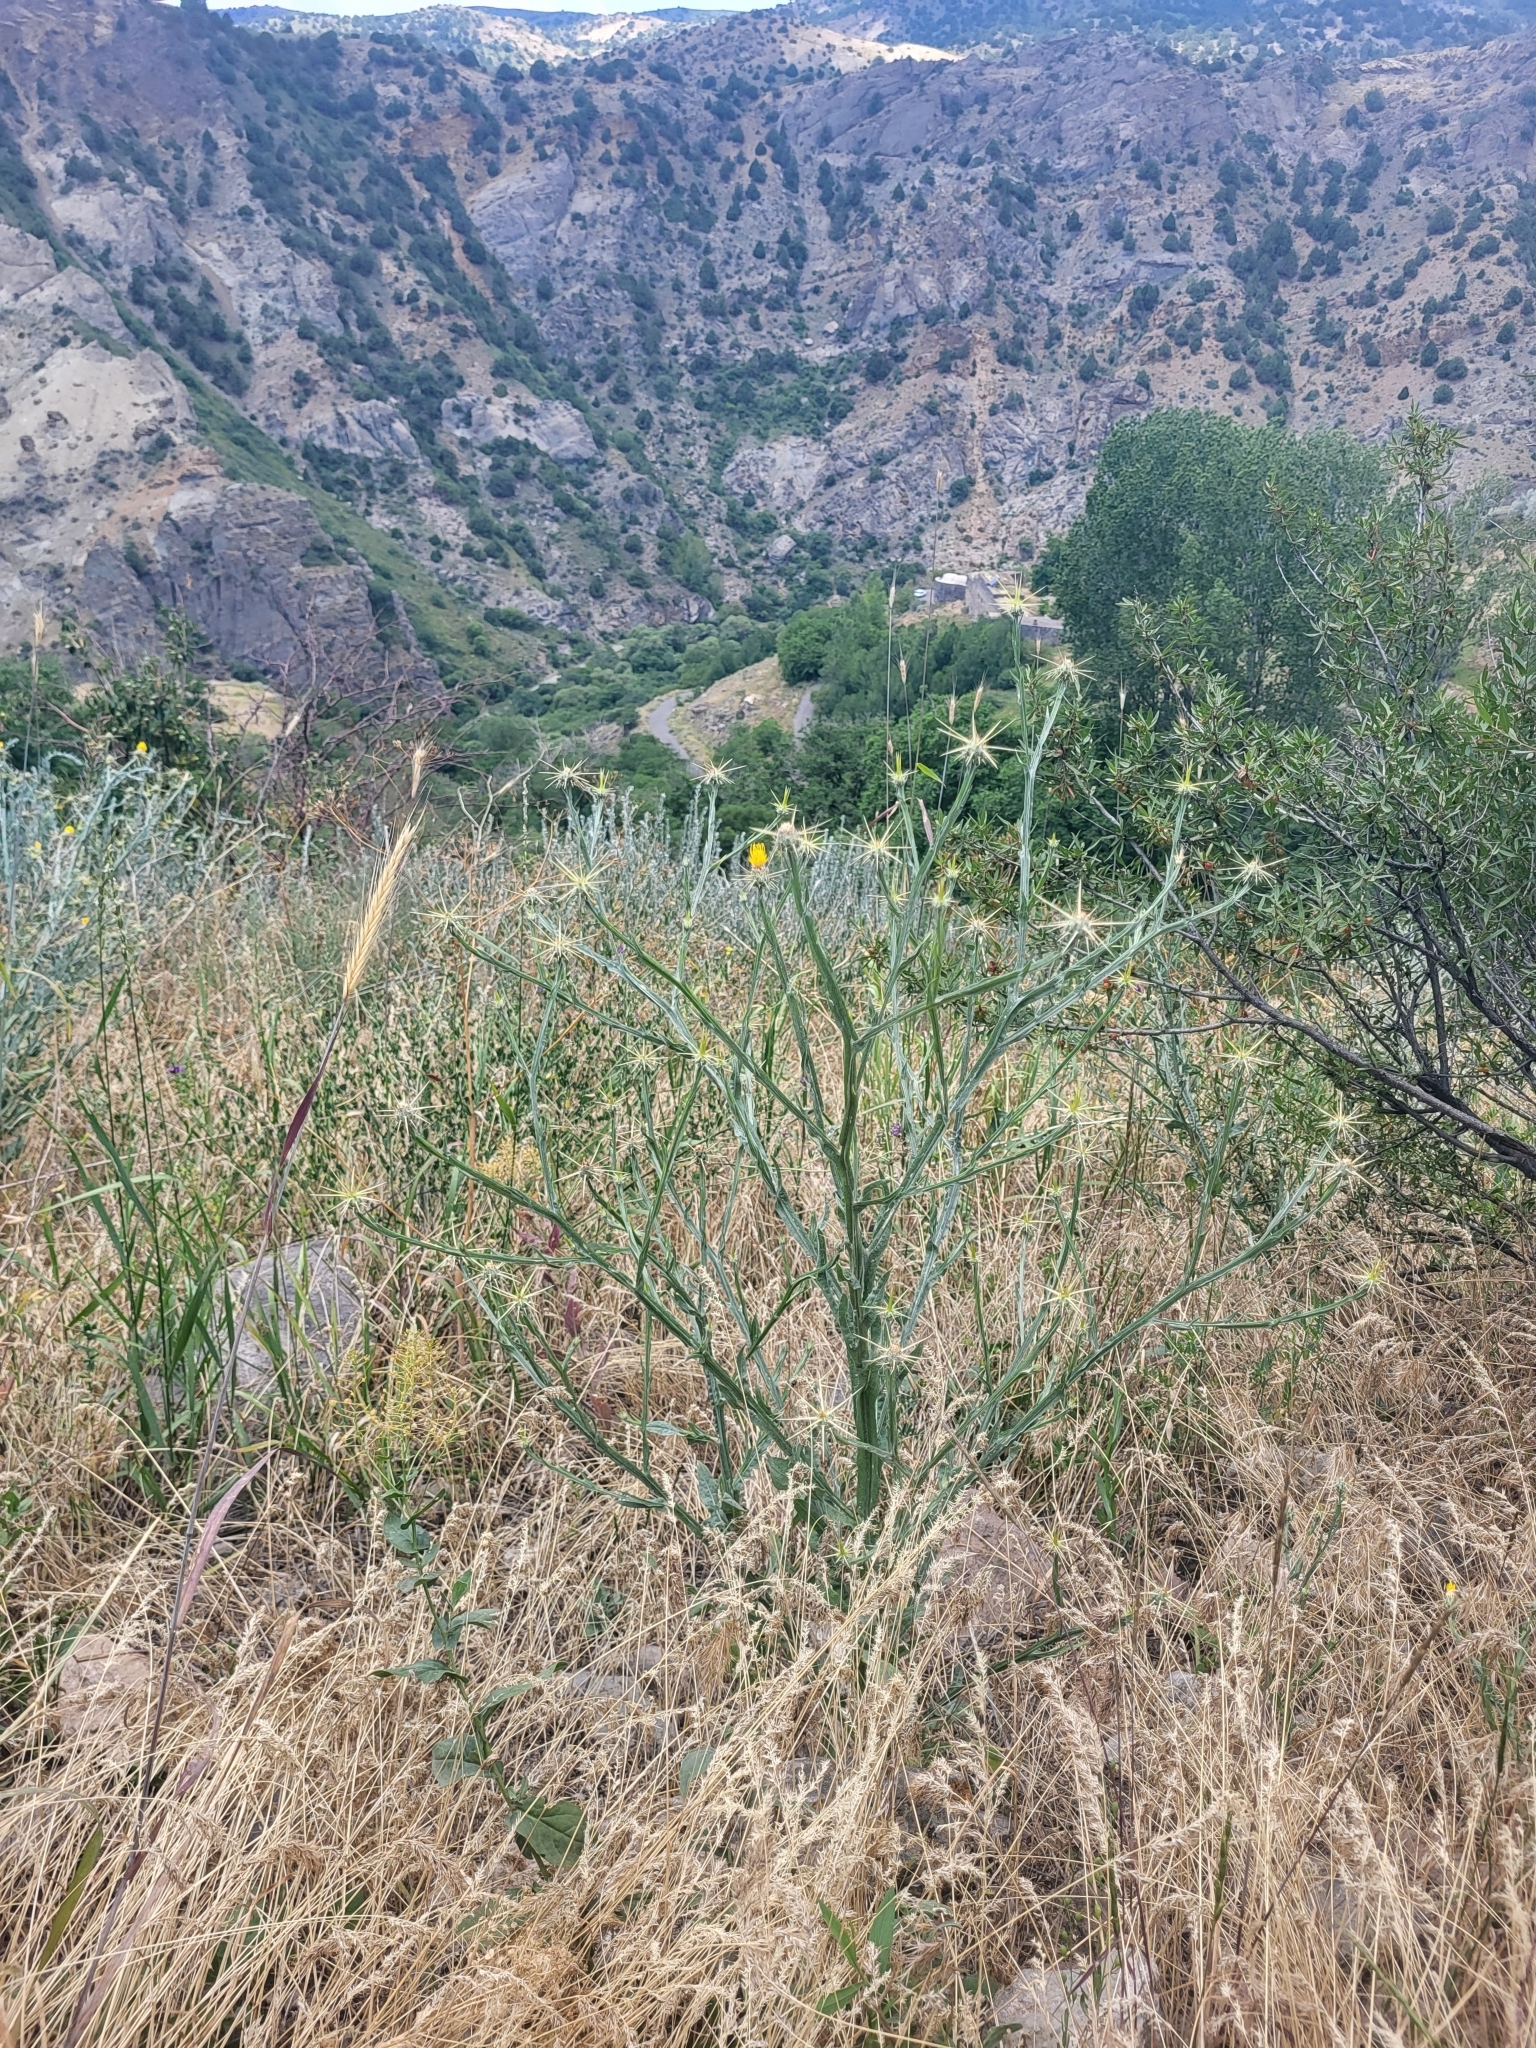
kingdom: Plantae
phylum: Tracheophyta
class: Magnoliopsida
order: Asterales
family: Asteraceae
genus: Centaurea
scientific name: Centaurea solstitialis
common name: Yellow star-thistle
